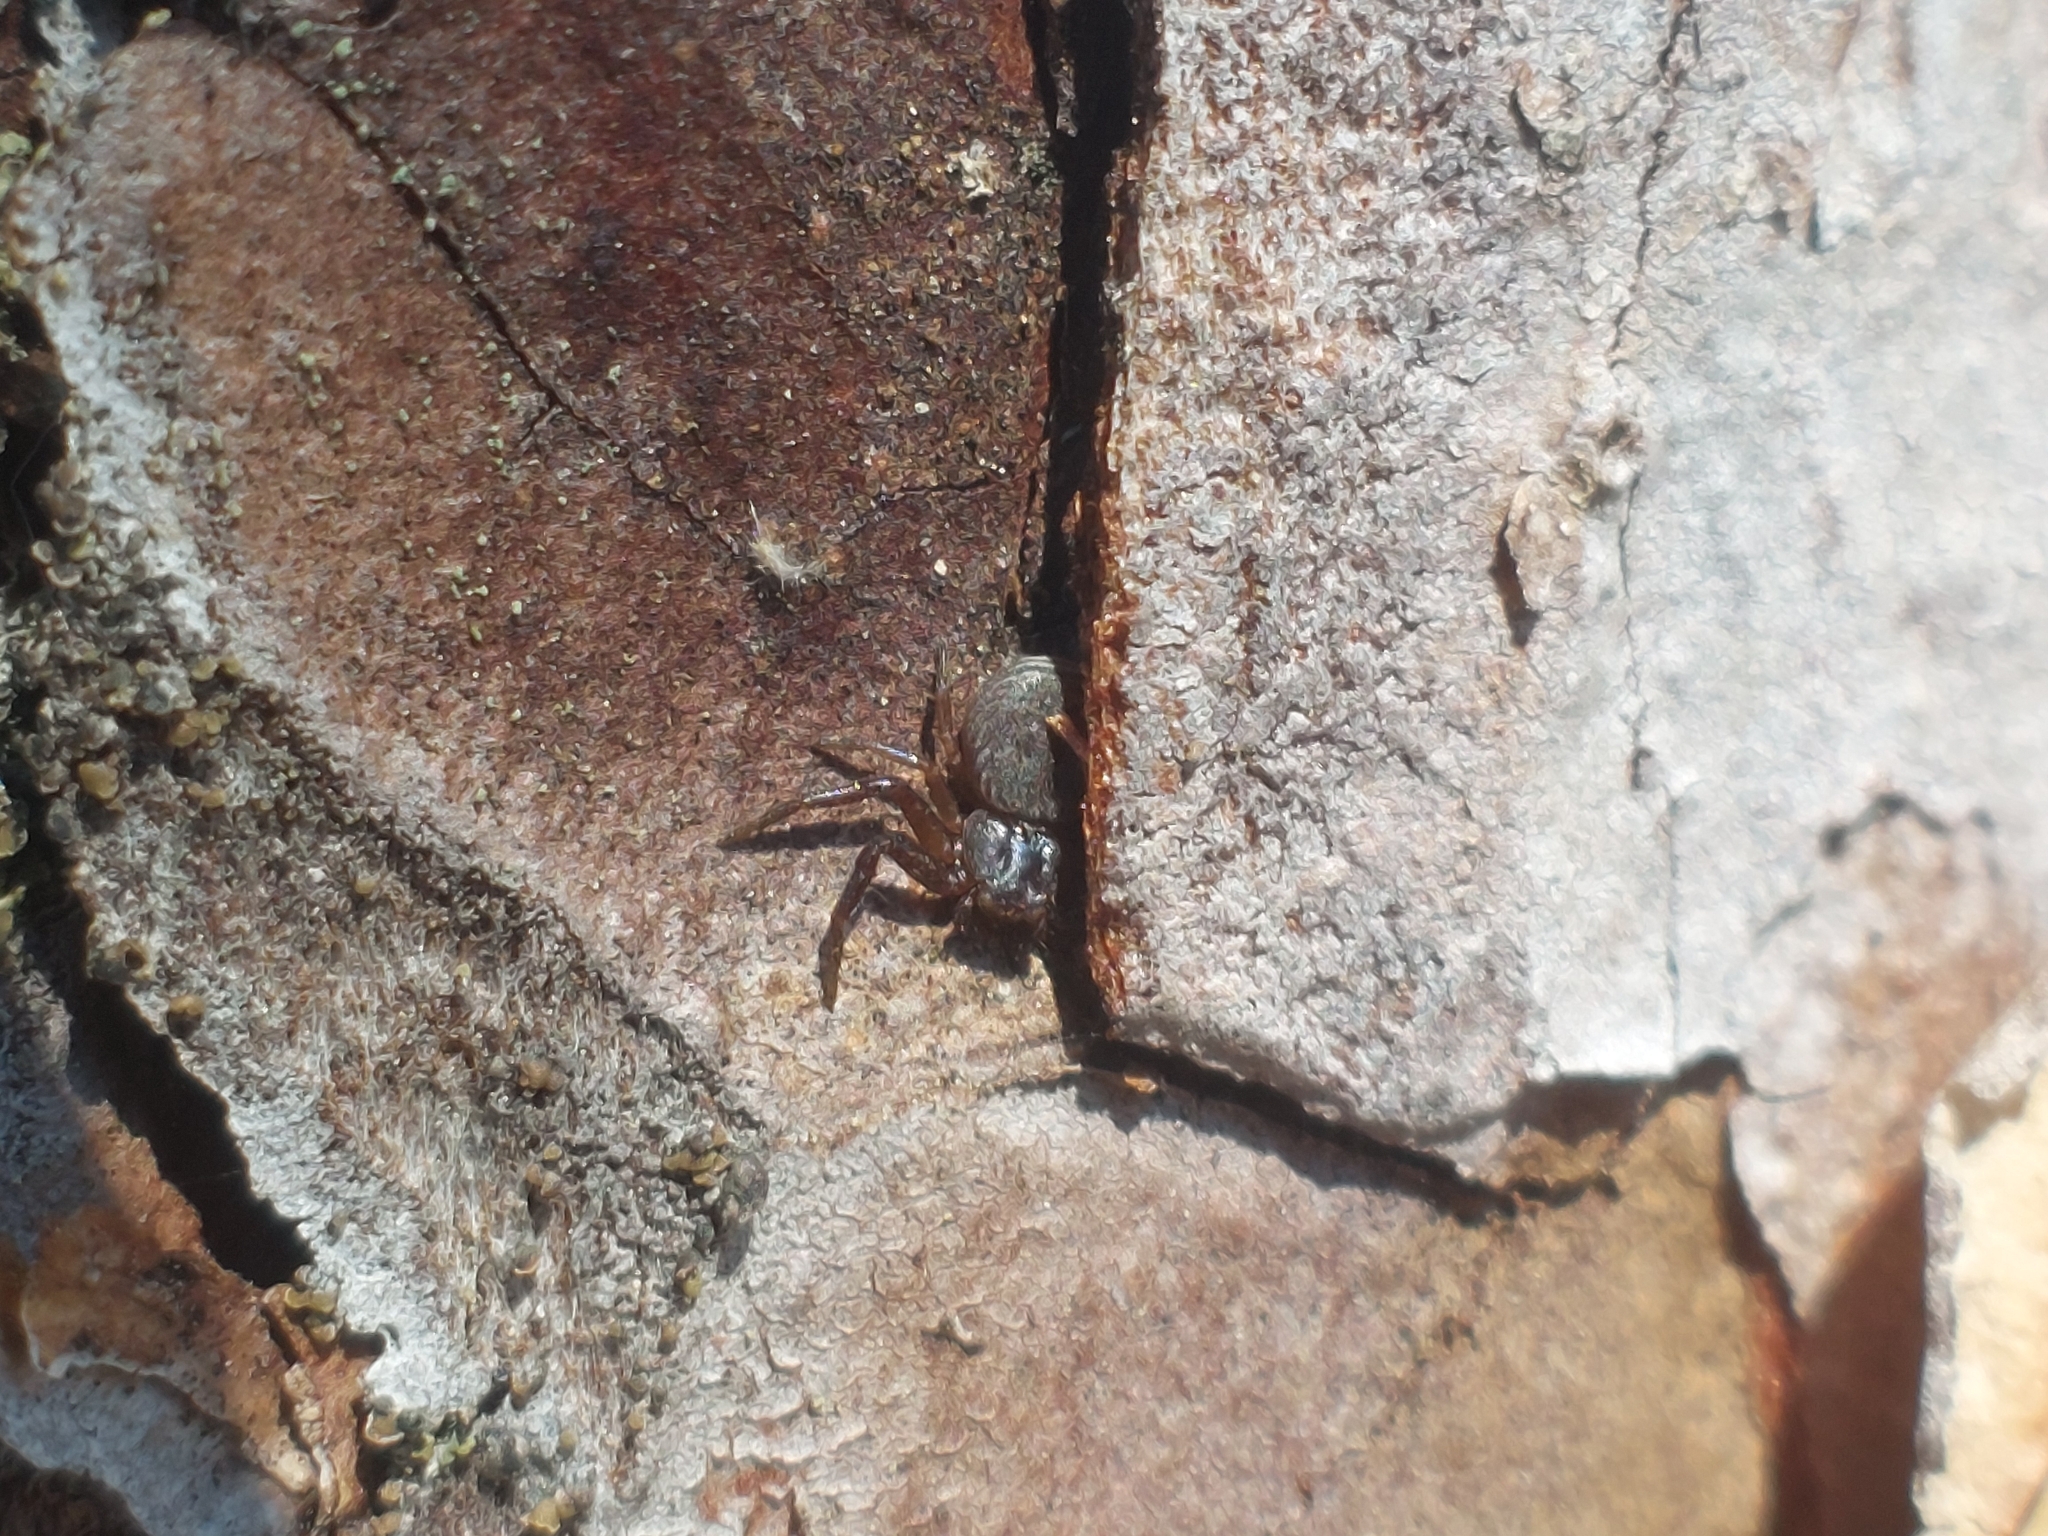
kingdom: Animalia
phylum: Arthropoda
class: Arachnida
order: Araneae
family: Thomisidae
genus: Coriarachne
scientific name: Coriarachne depressa
